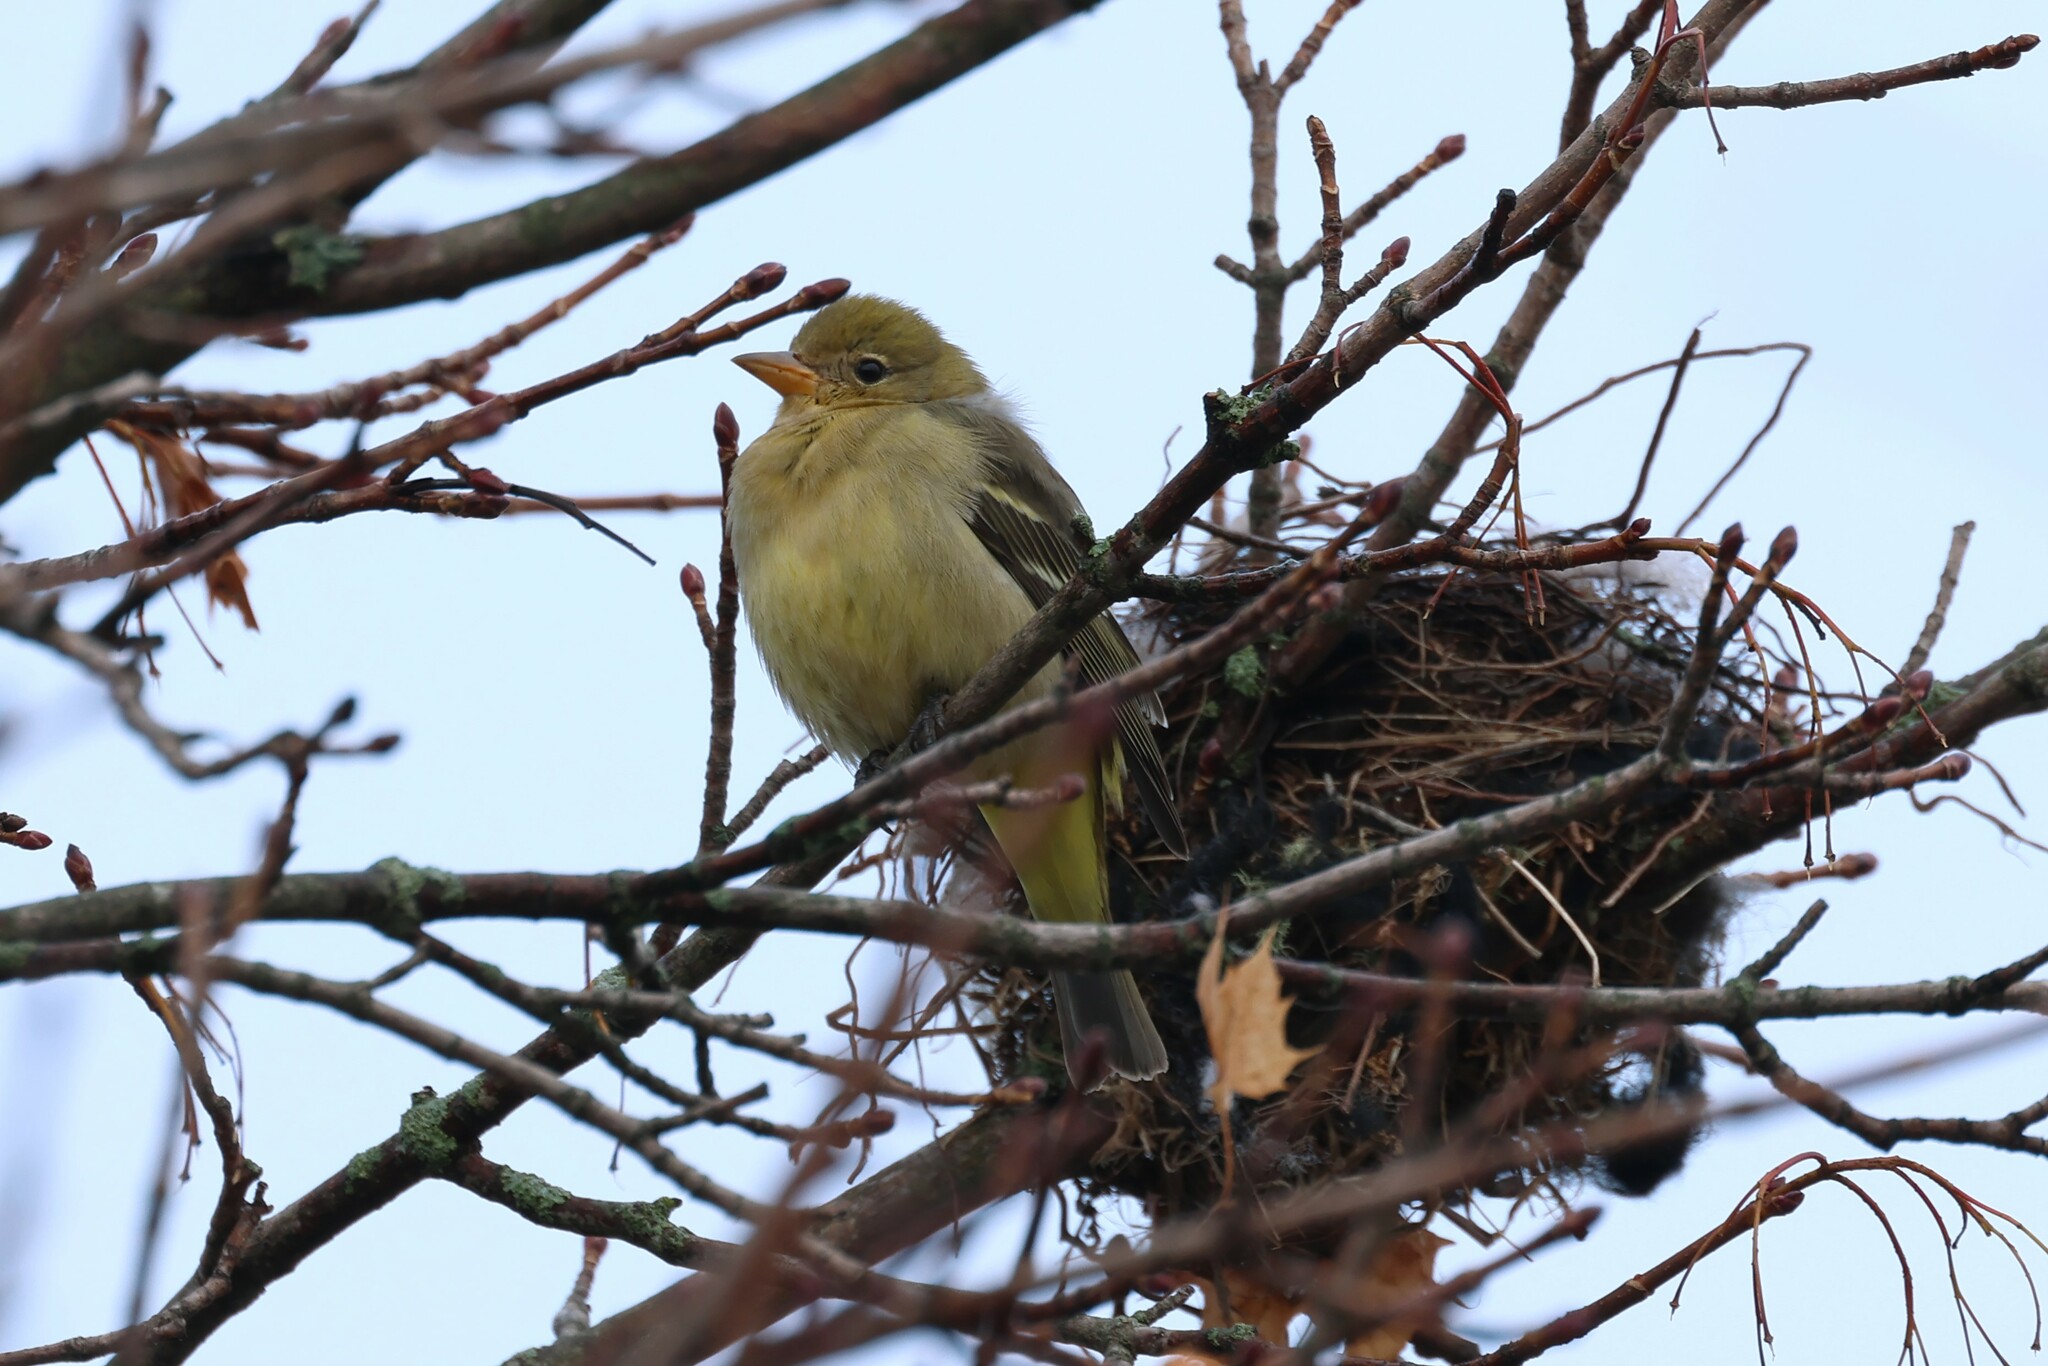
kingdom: Animalia
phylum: Chordata
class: Aves
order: Passeriformes
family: Cardinalidae
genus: Piranga
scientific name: Piranga ludoviciana
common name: Western tanager
